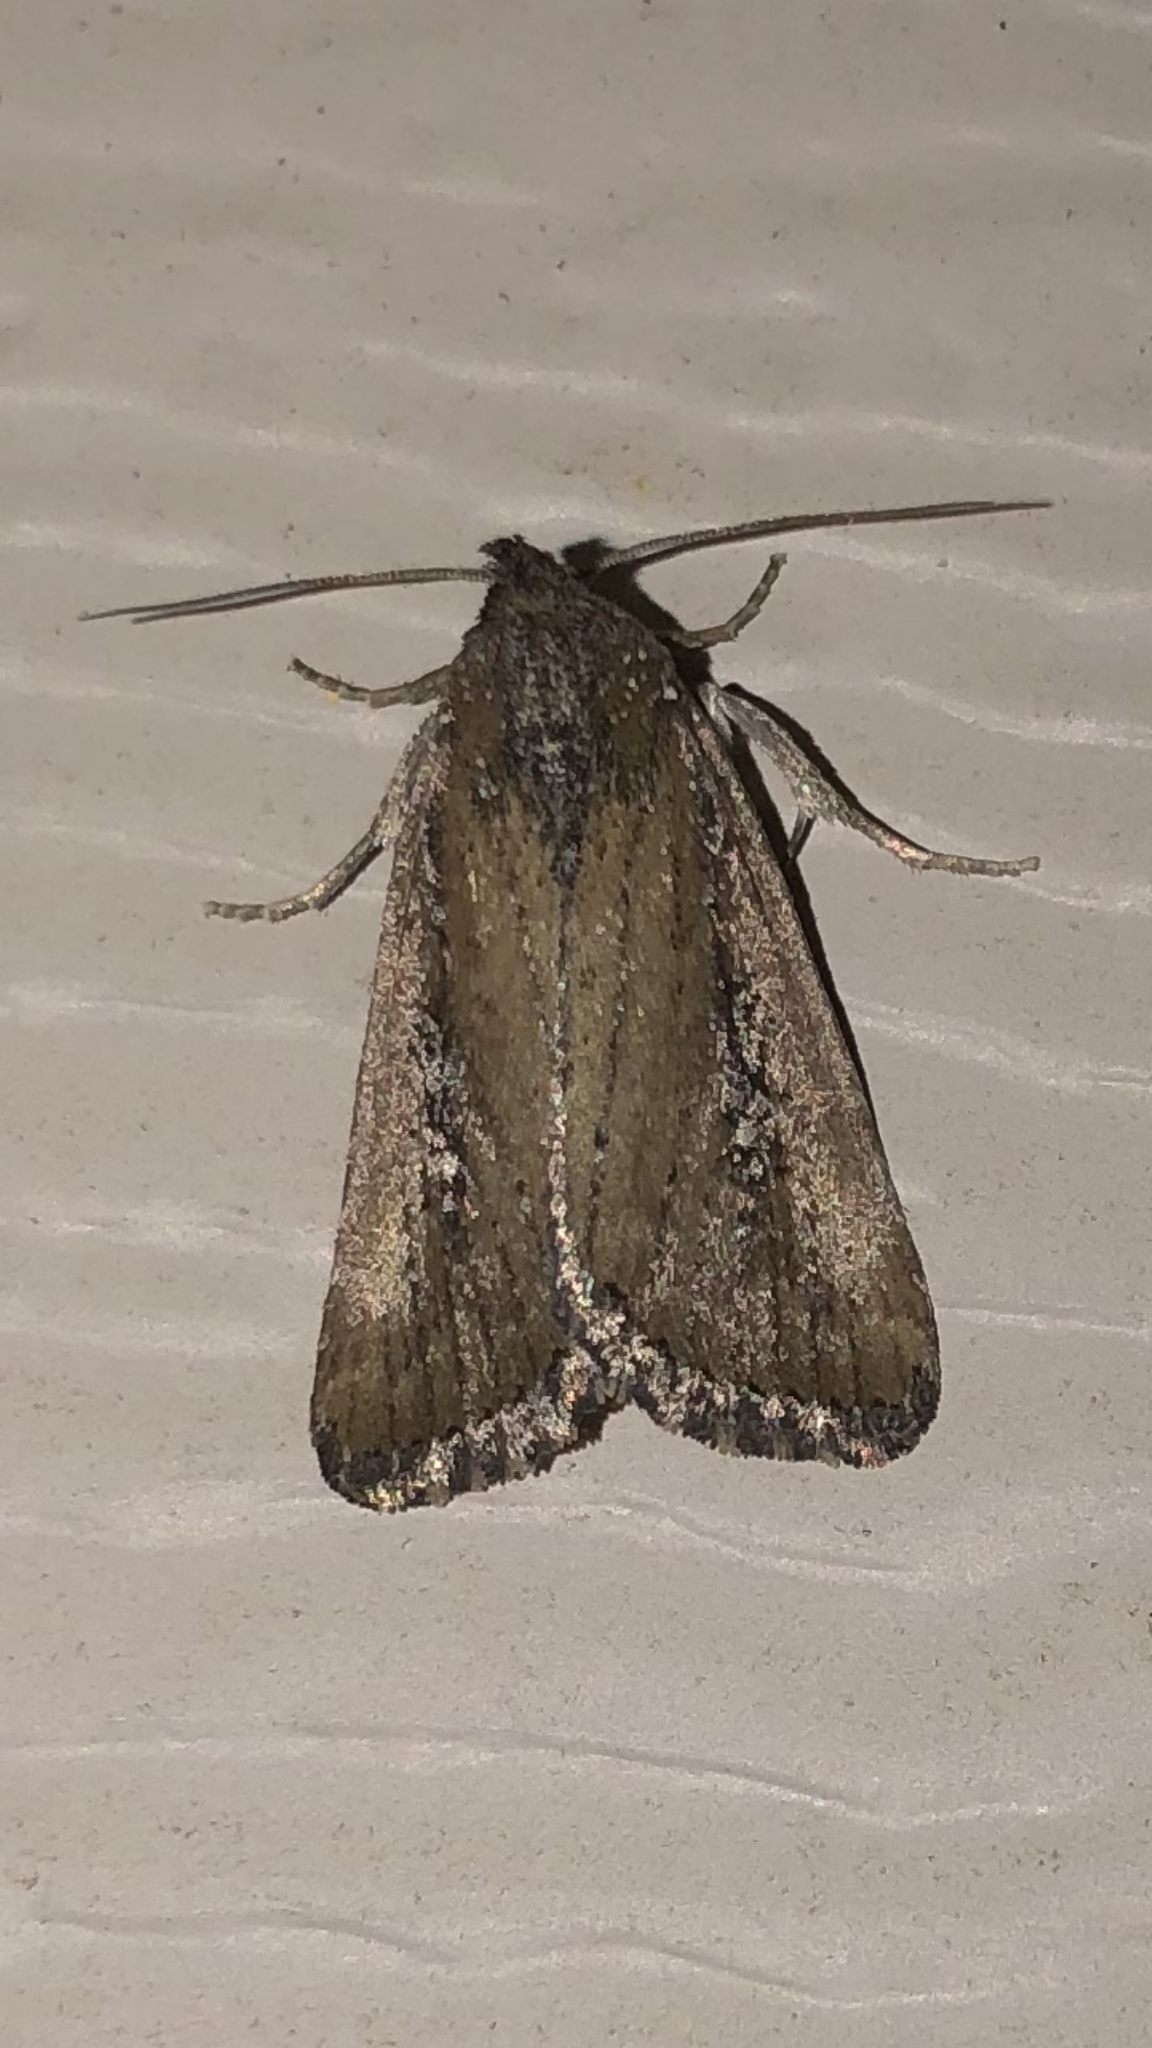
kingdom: Animalia
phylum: Arthropoda
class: Insecta
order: Lepidoptera
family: Noctuidae
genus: Condica
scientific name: Condica videns
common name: White-dotted groundling
